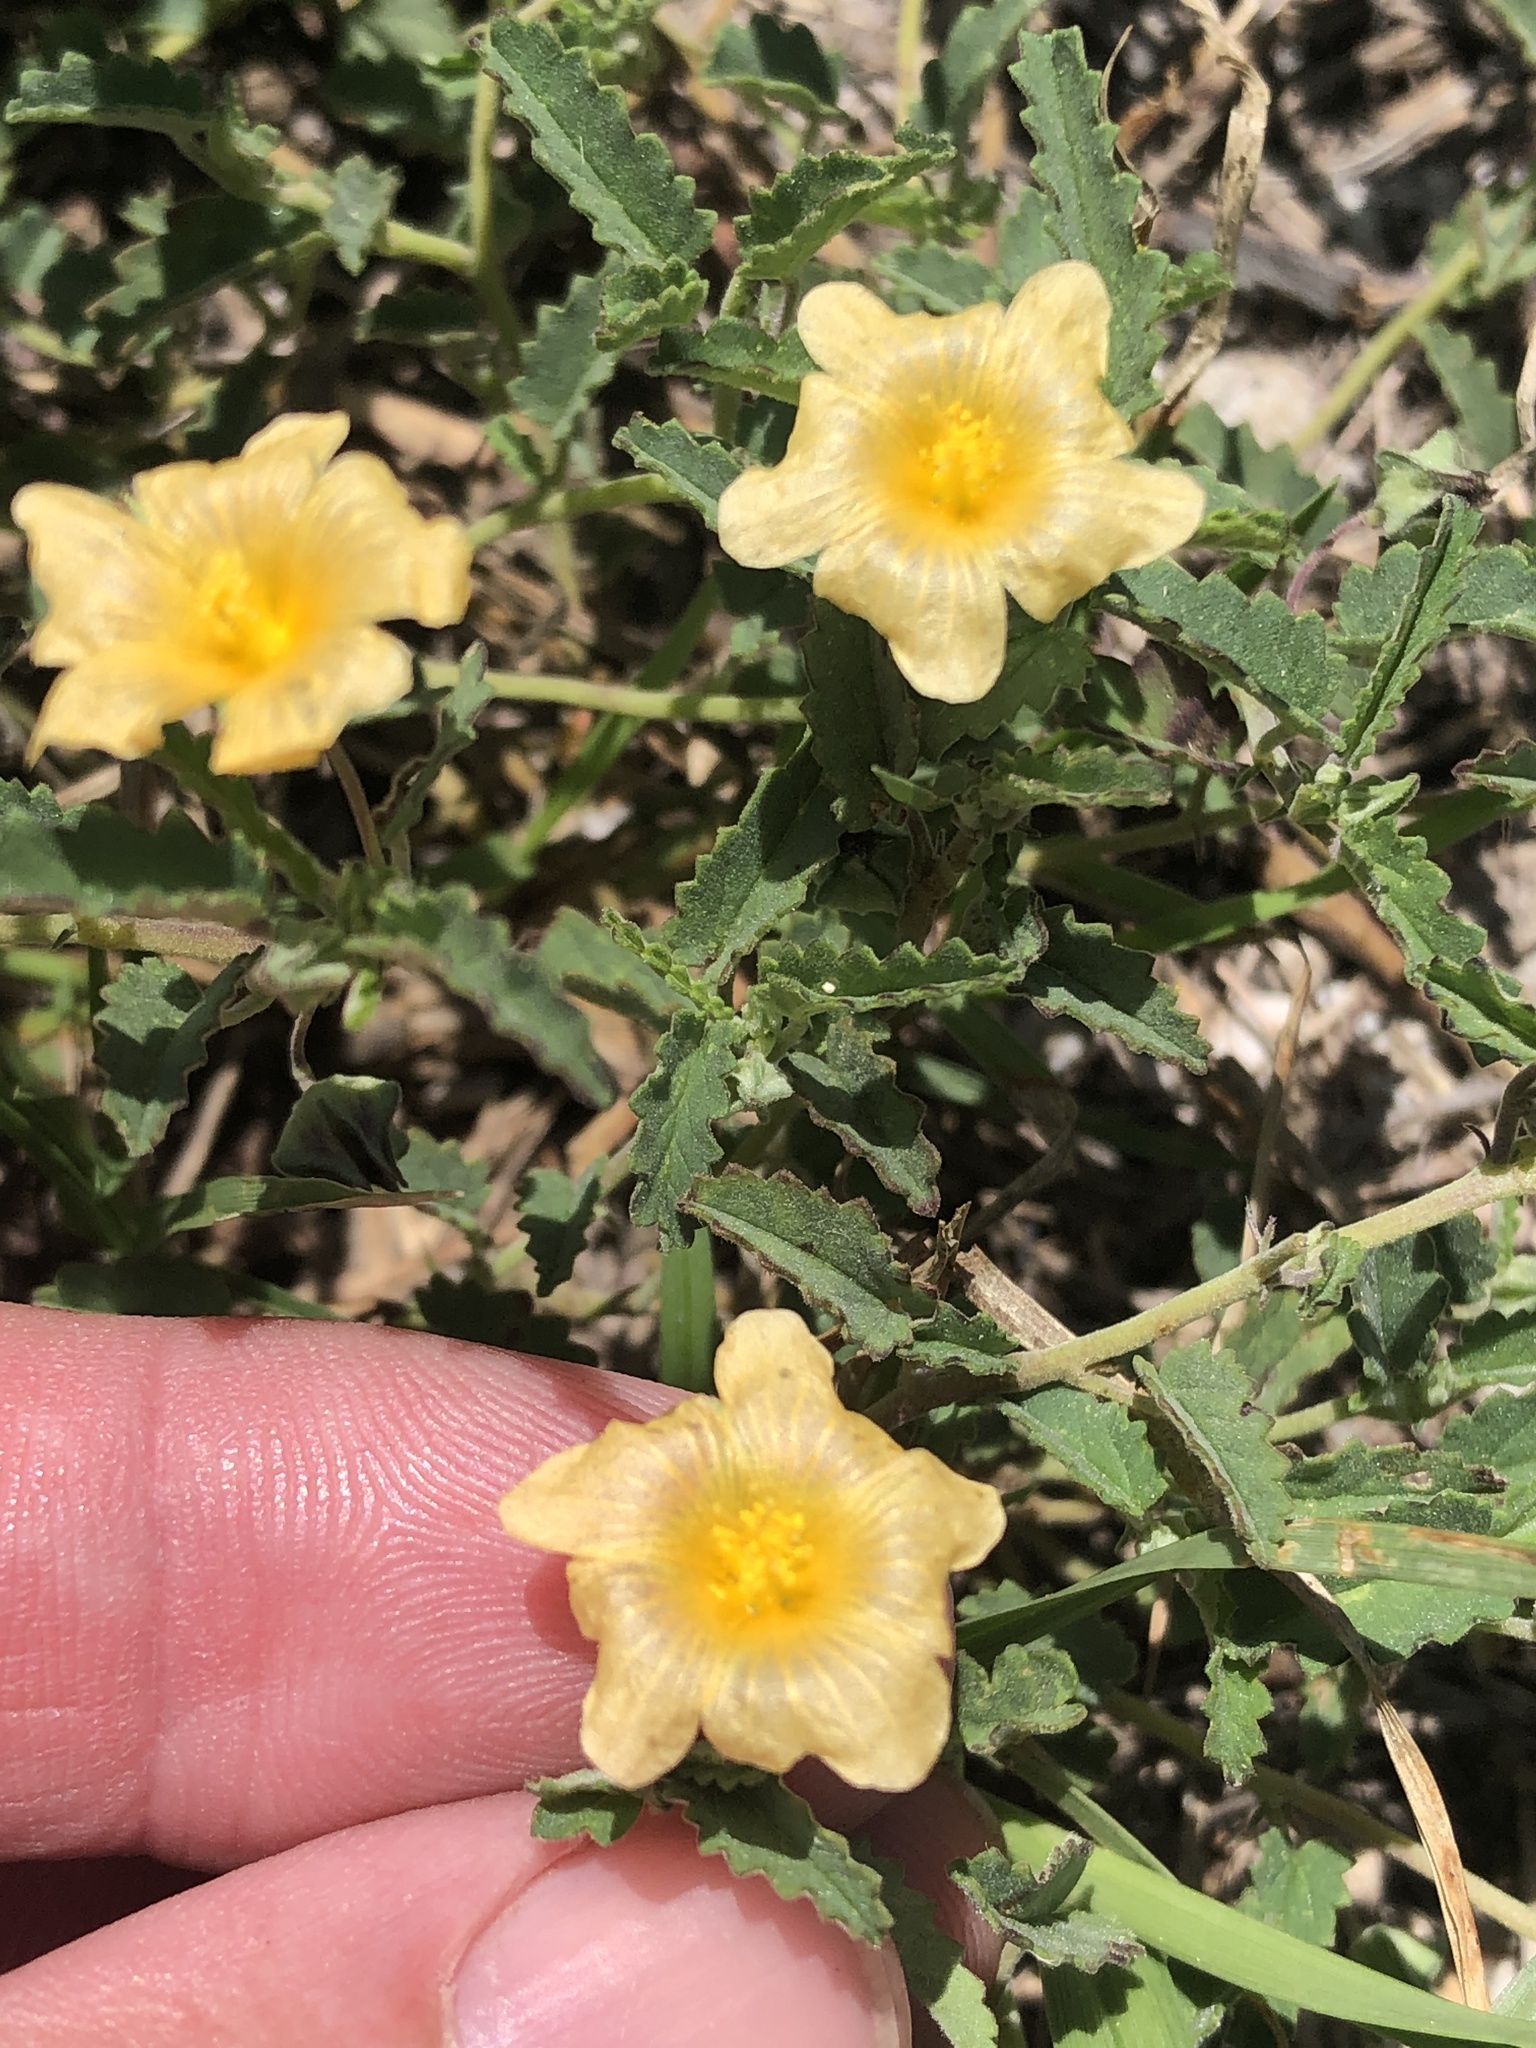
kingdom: Plantae
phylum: Tracheophyta
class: Magnoliopsida
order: Malvales
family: Malvaceae
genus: Sida
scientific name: Sida abutilifolia
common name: Spreading fanpetals
